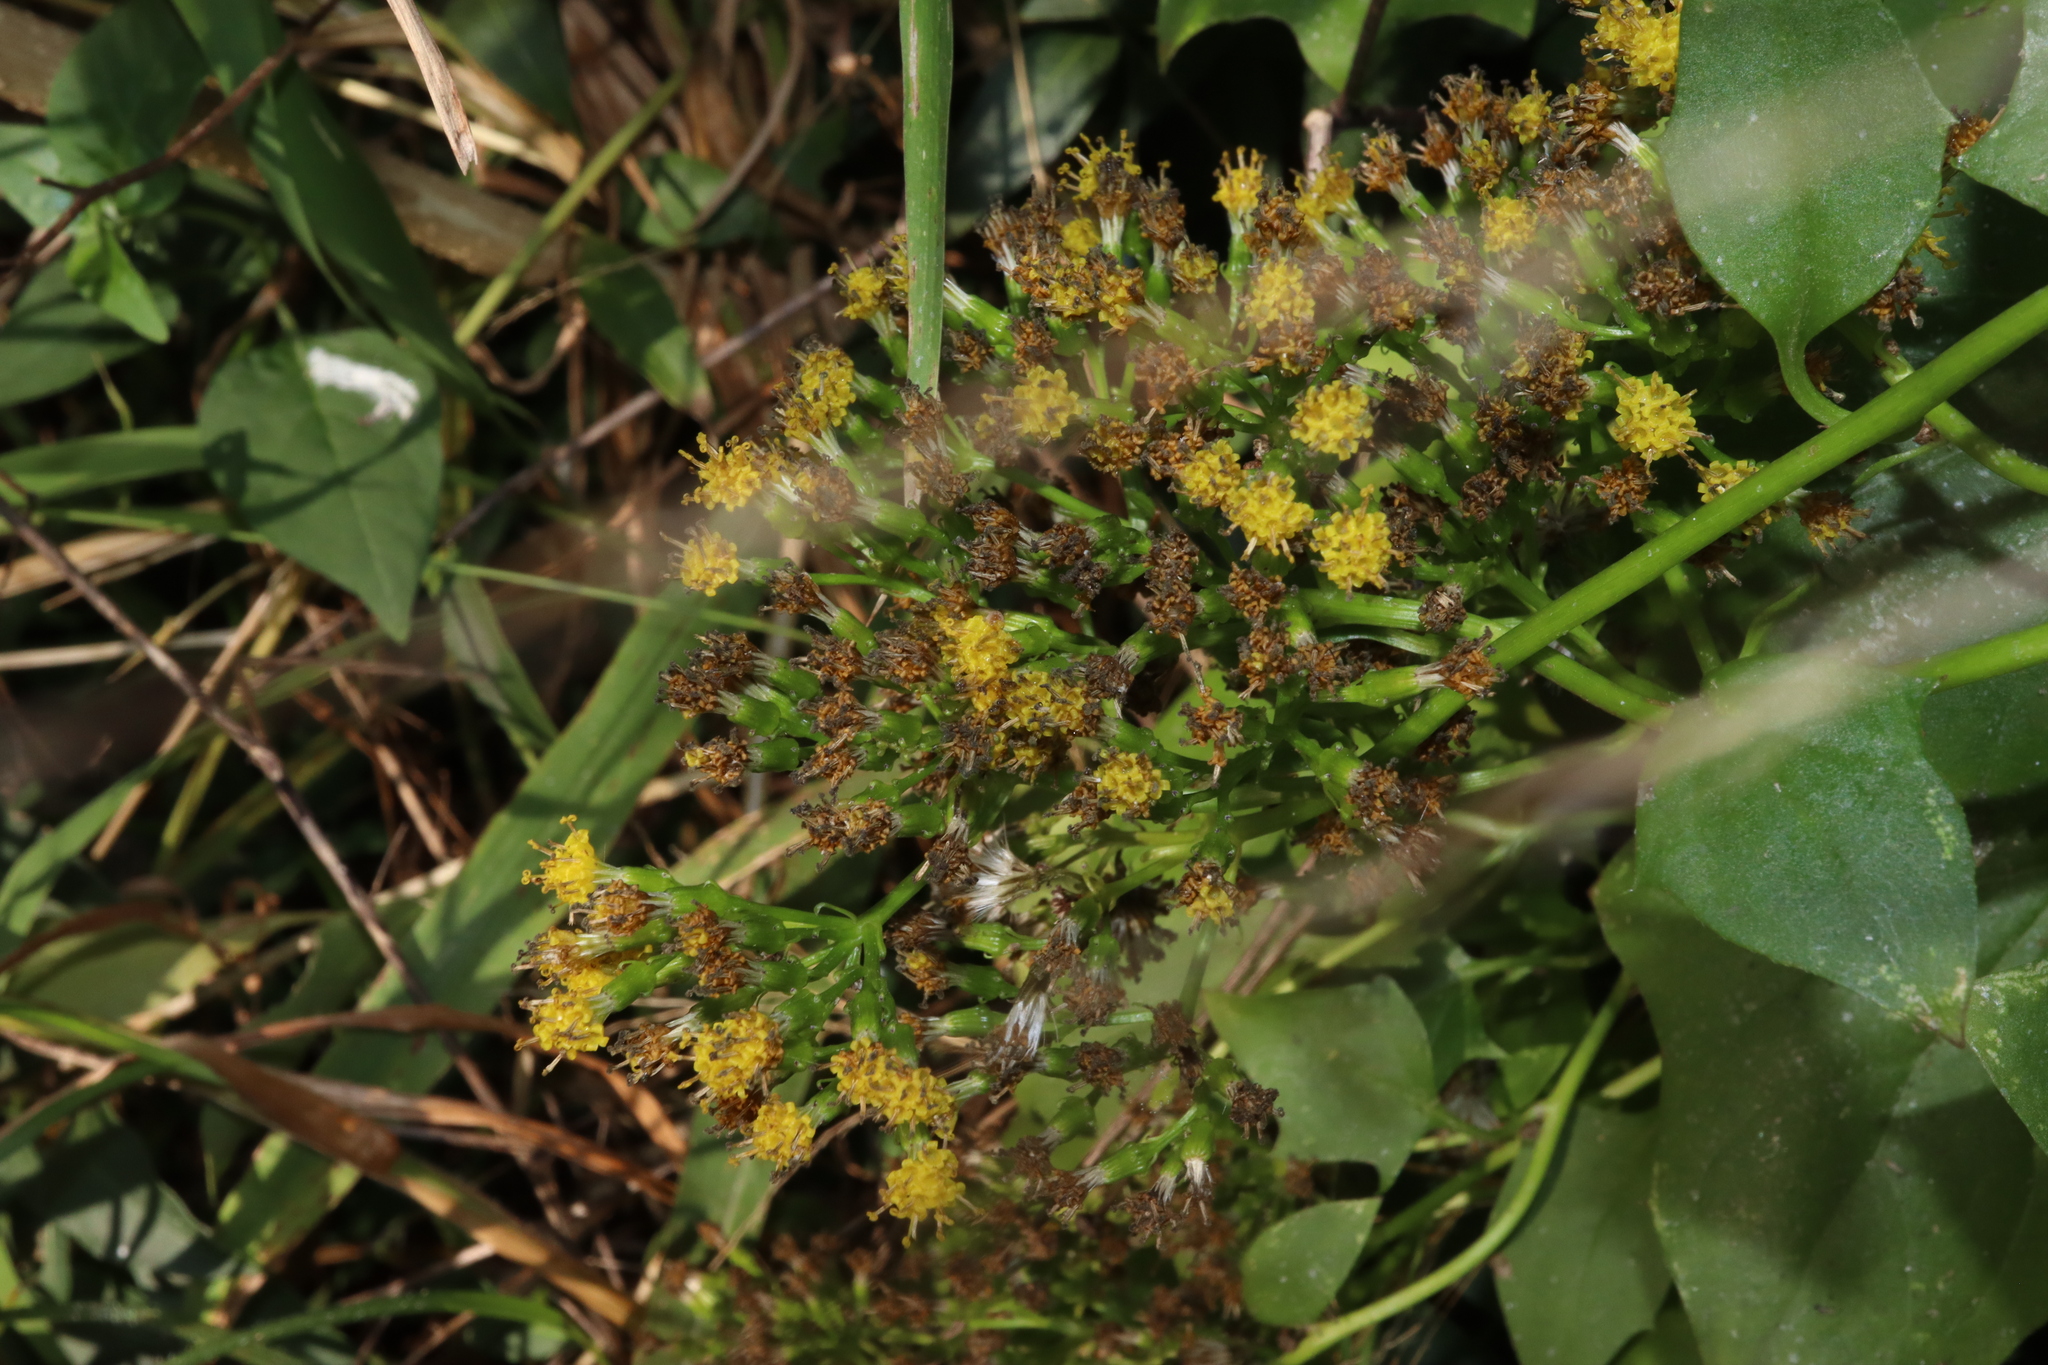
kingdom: Plantae
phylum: Tracheophyta
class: Magnoliopsida
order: Asterales
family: Asteraceae
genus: Delairea
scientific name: Delairea odorata
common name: Cape-ivy
